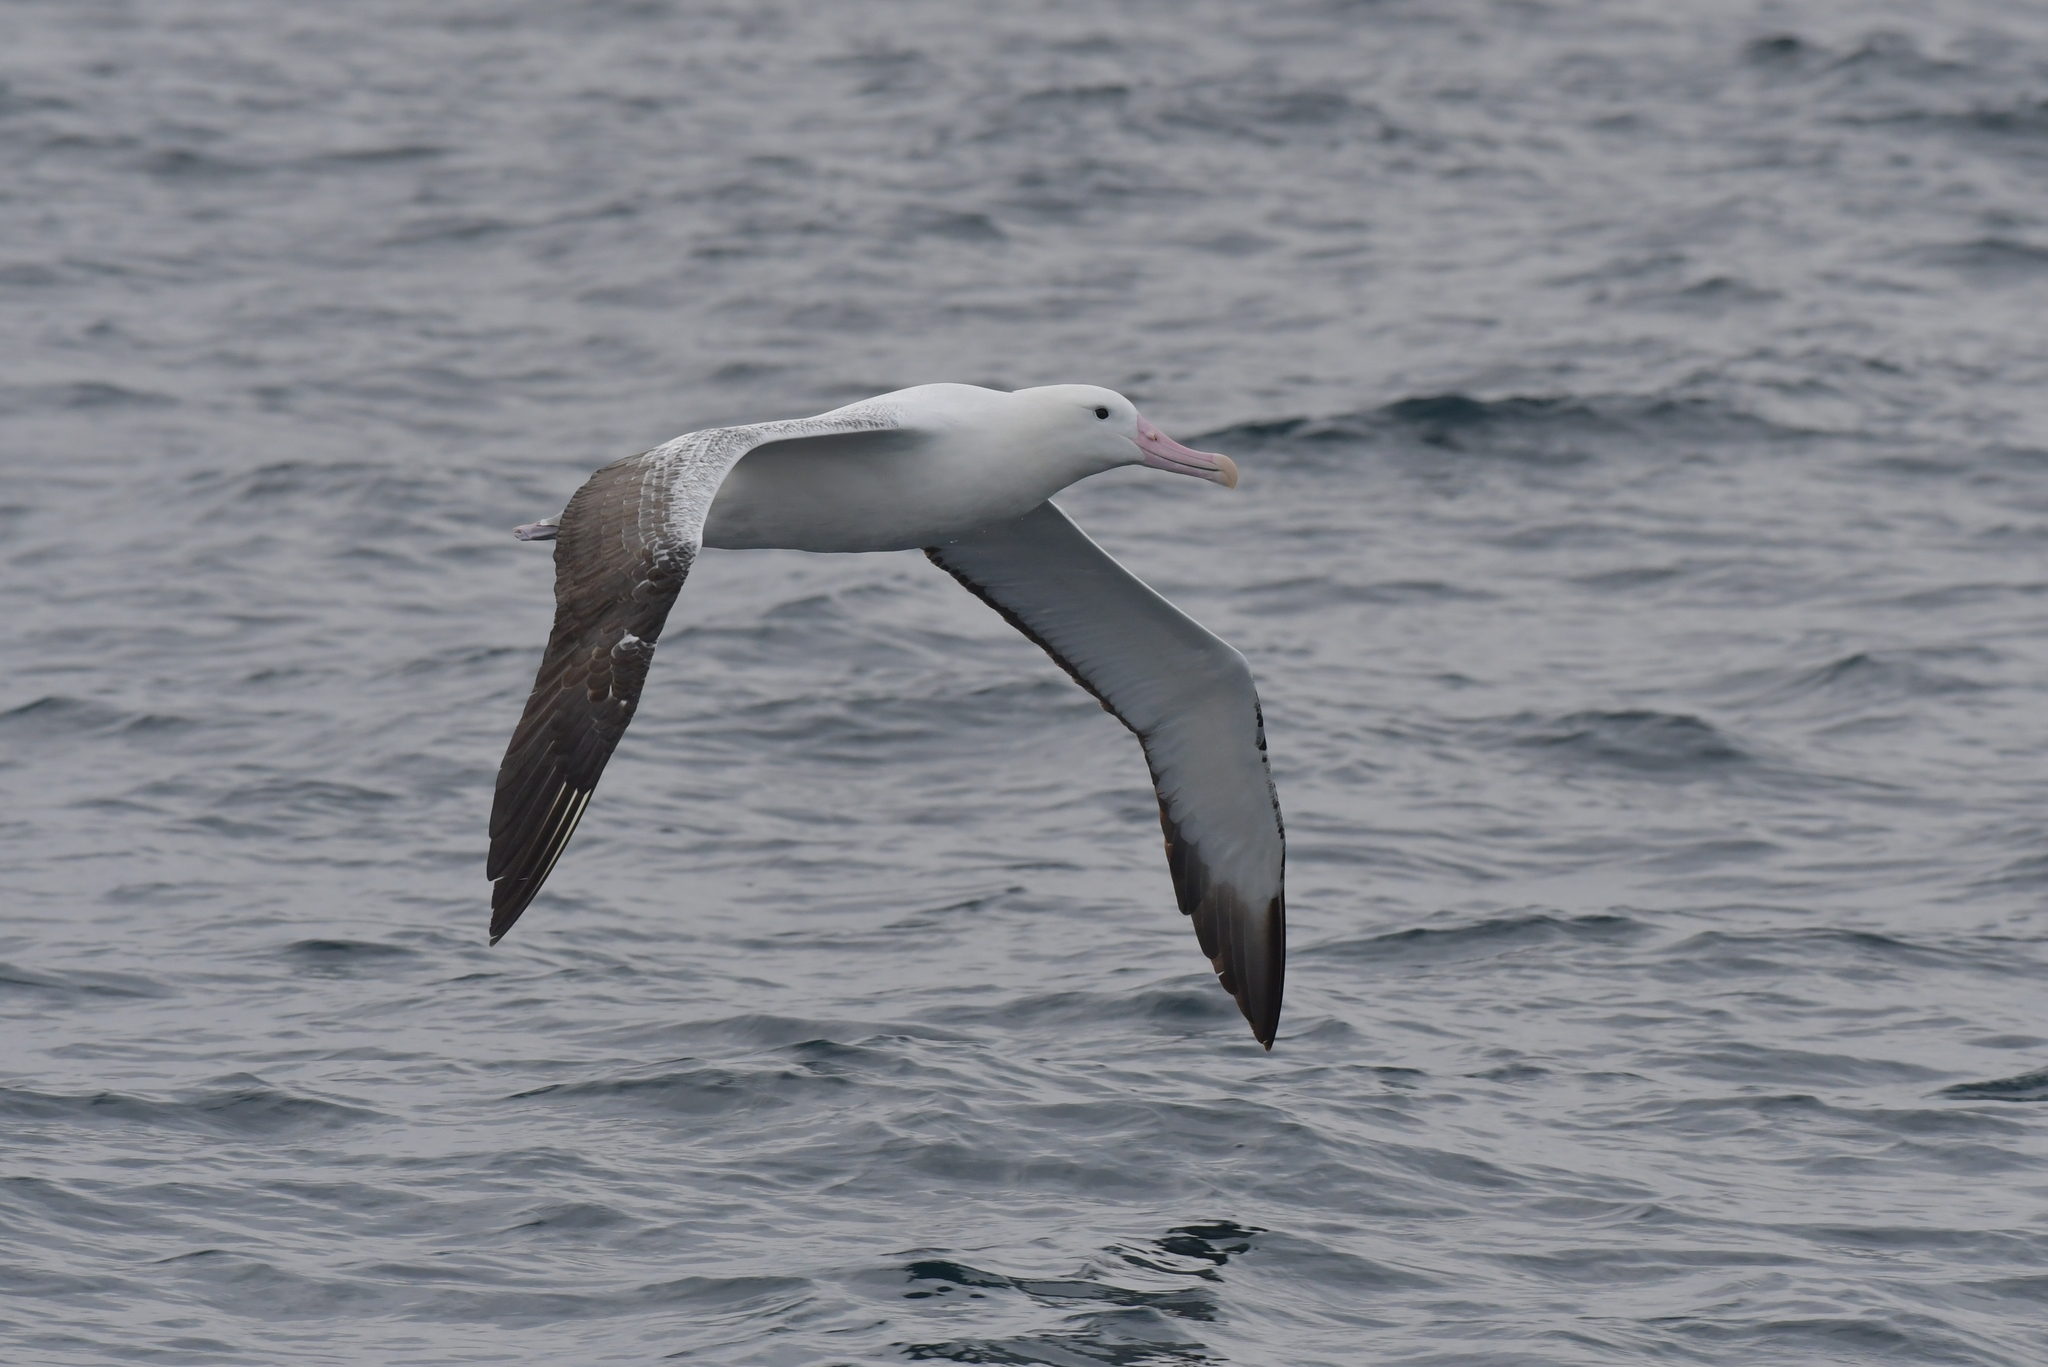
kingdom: Animalia
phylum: Chordata
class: Aves
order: Procellariiformes
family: Diomedeidae
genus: Diomedea
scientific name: Diomedea epomophora
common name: Southern royal albatross
